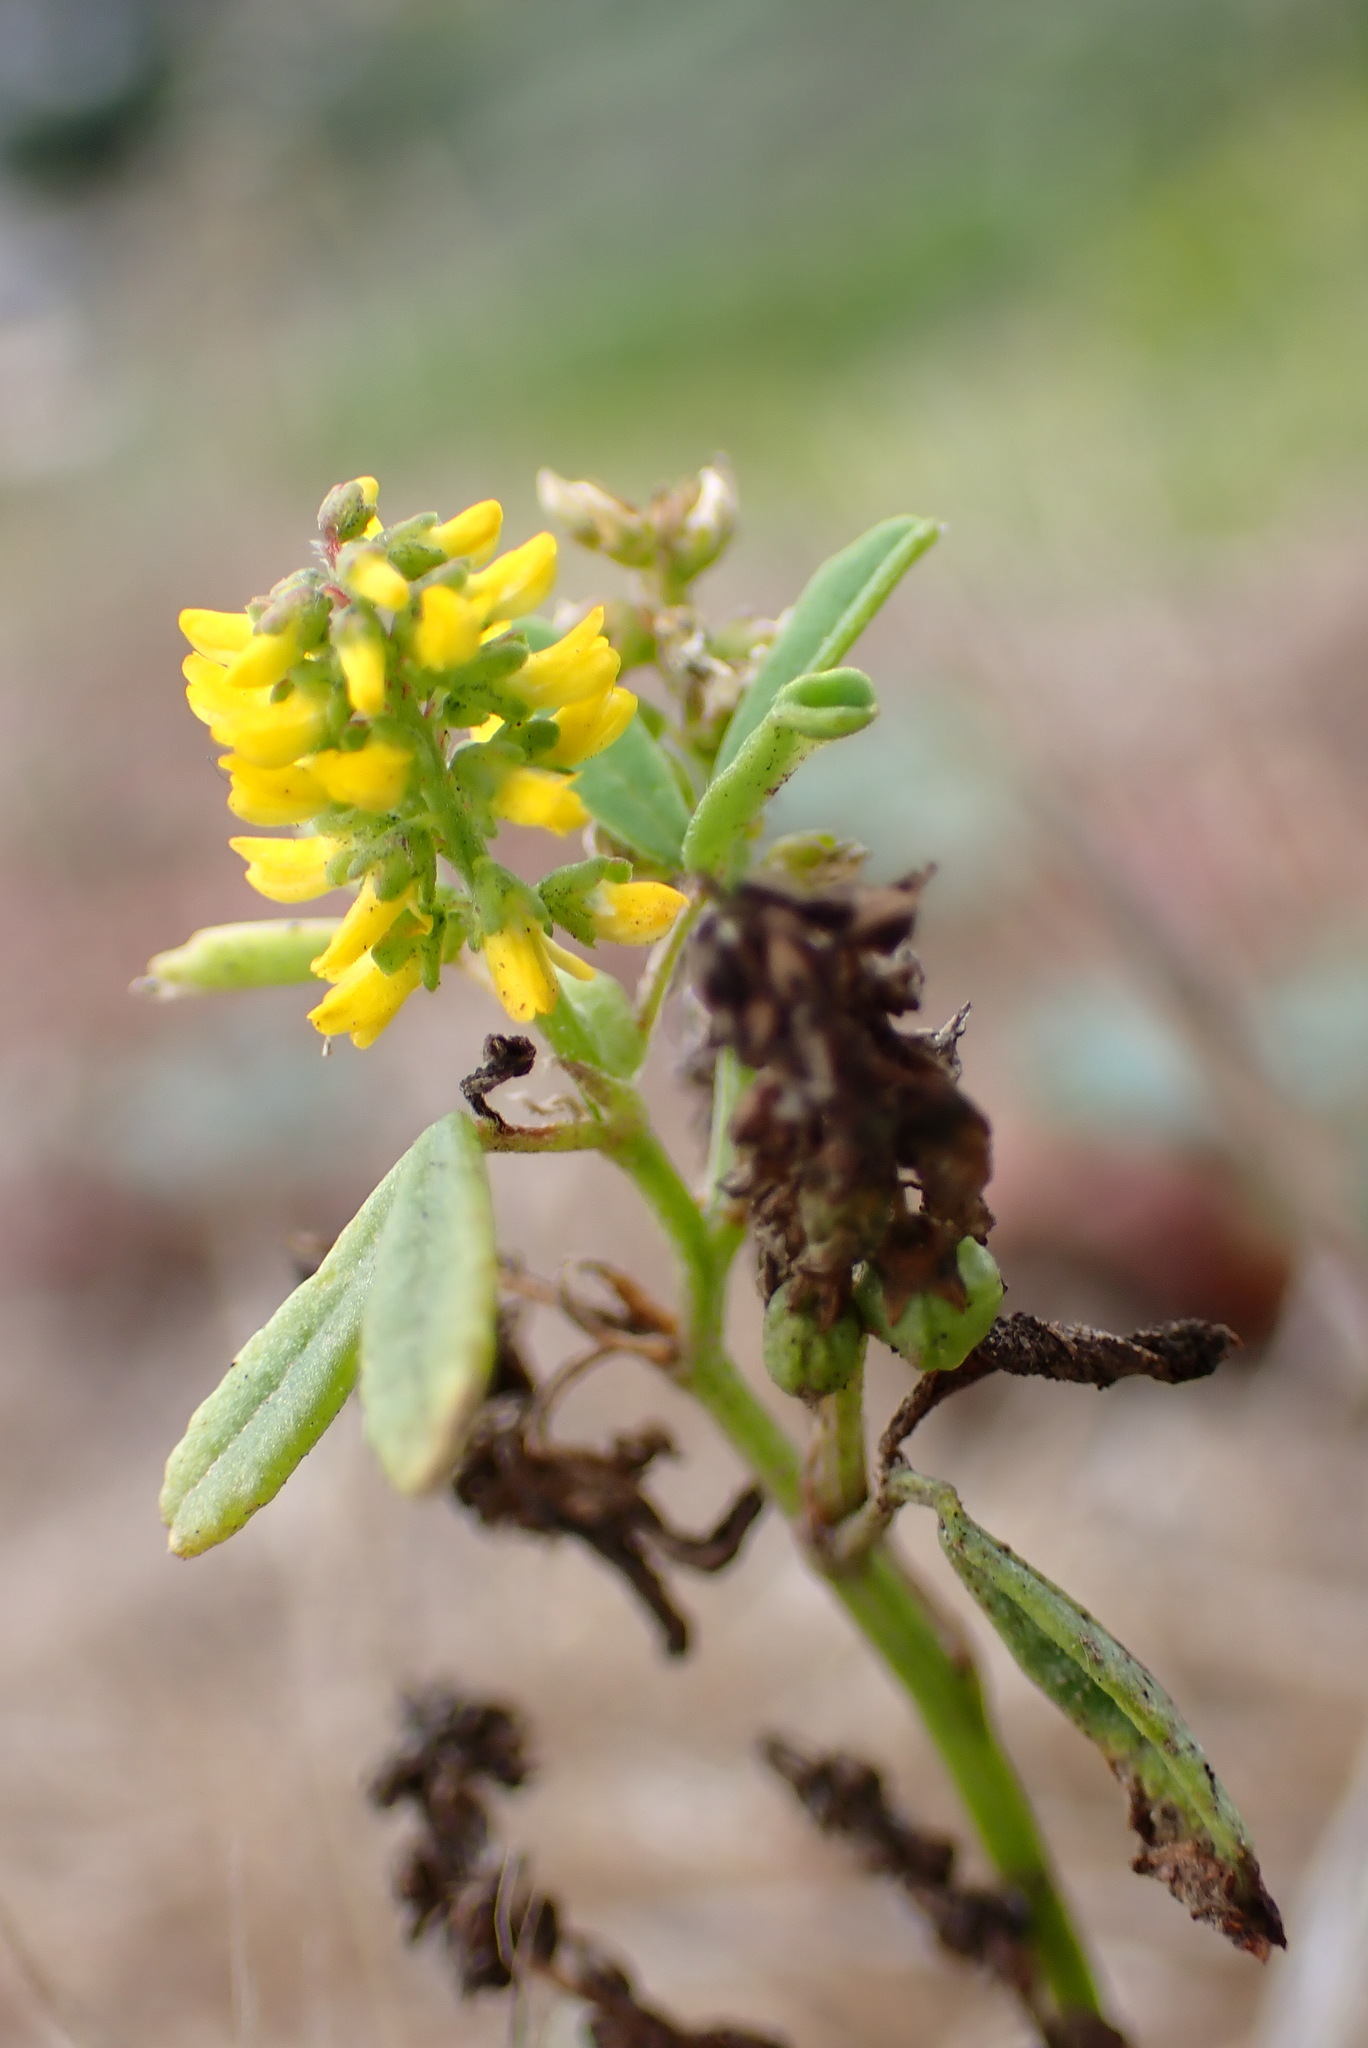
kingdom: Plantae
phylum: Tracheophyta
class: Magnoliopsida
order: Fabales
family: Fabaceae
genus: Melilotus
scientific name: Melilotus indicus
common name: Small melilot
